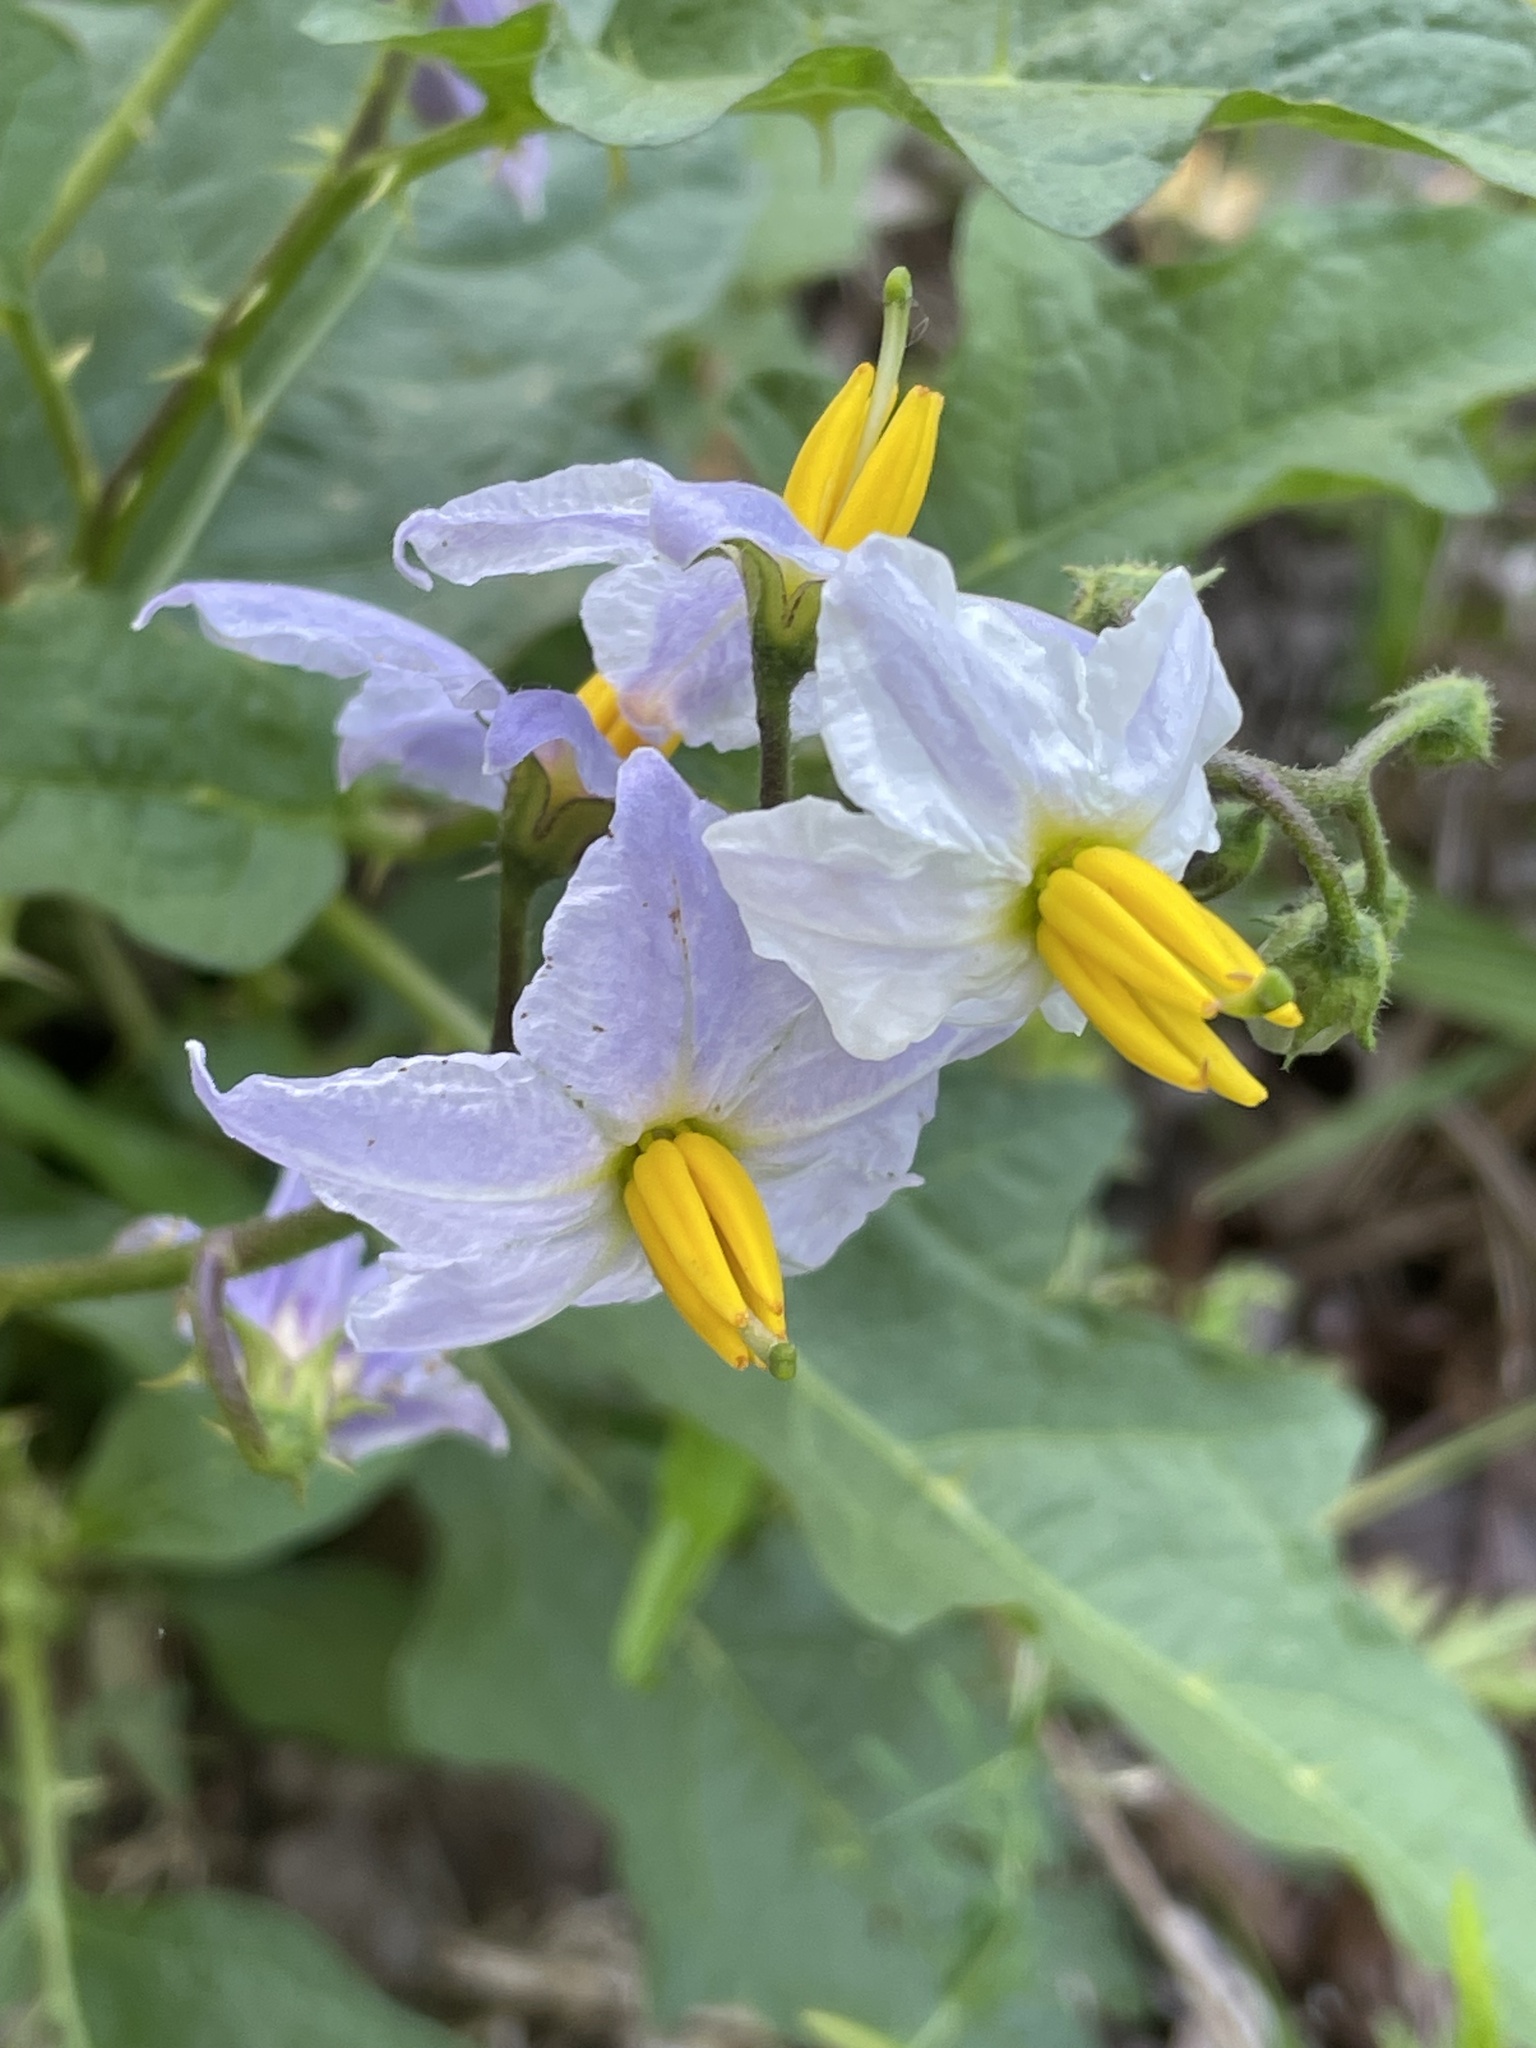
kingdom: Plantae
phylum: Tracheophyta
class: Magnoliopsida
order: Solanales
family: Solanaceae
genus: Solanum
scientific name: Solanum carolinense
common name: Horse-nettle
